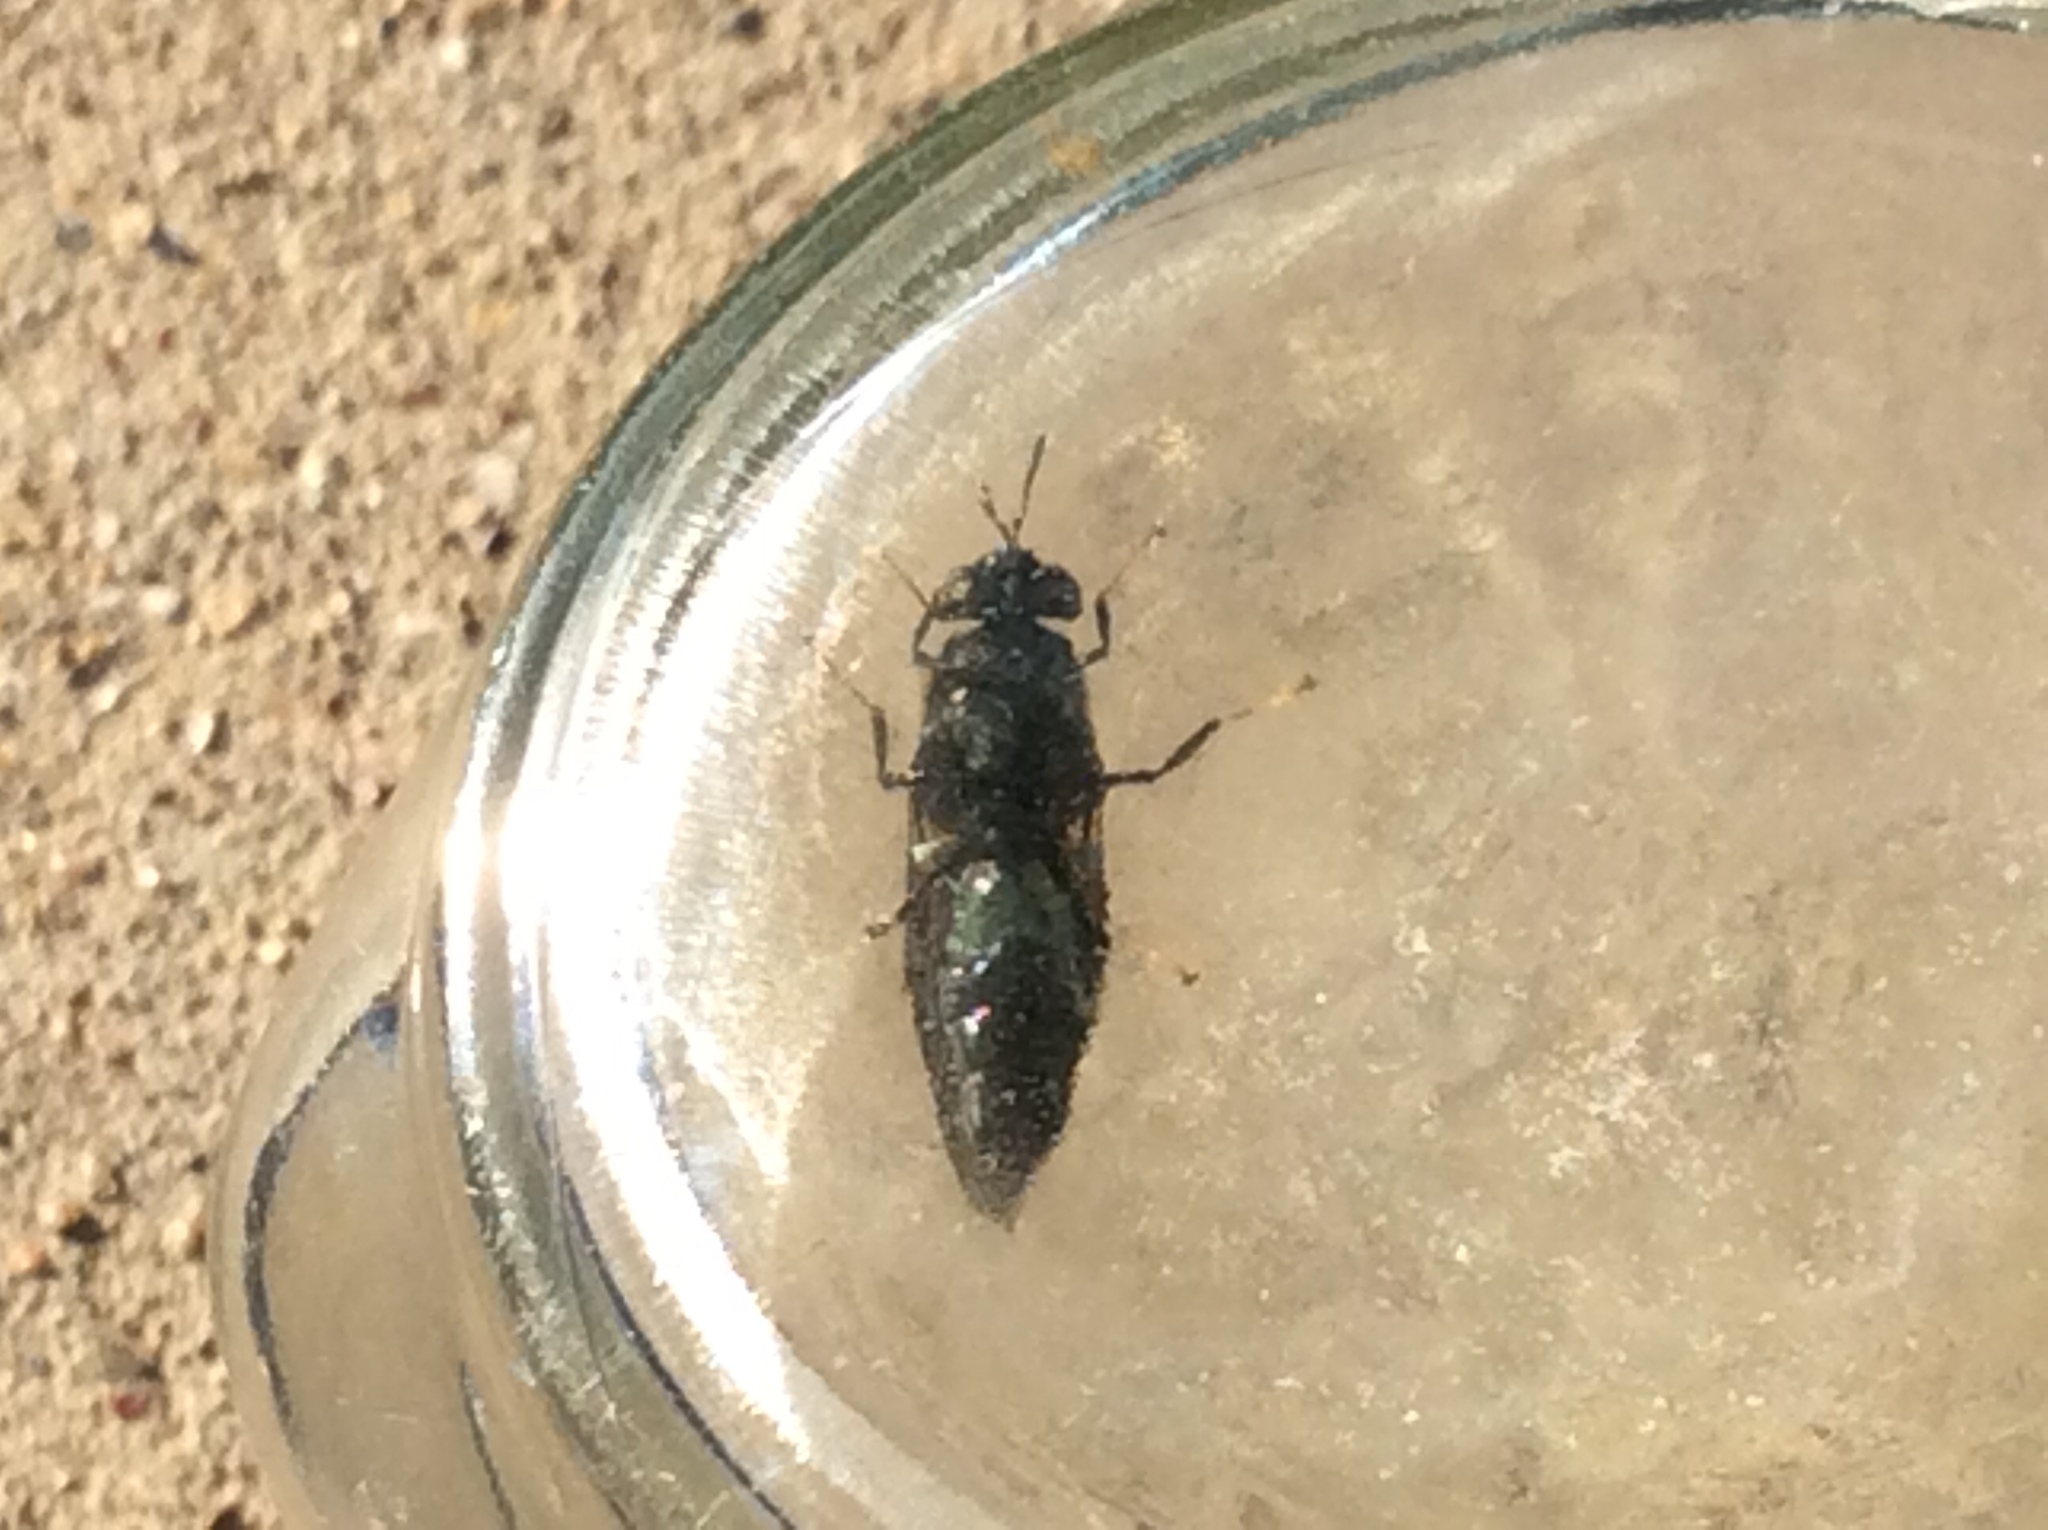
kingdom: Animalia
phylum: Arthropoda
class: Insecta
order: Diptera
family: Stratiomyidae
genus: Hermetia
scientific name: Hermetia illucens
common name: Black soldier fly
